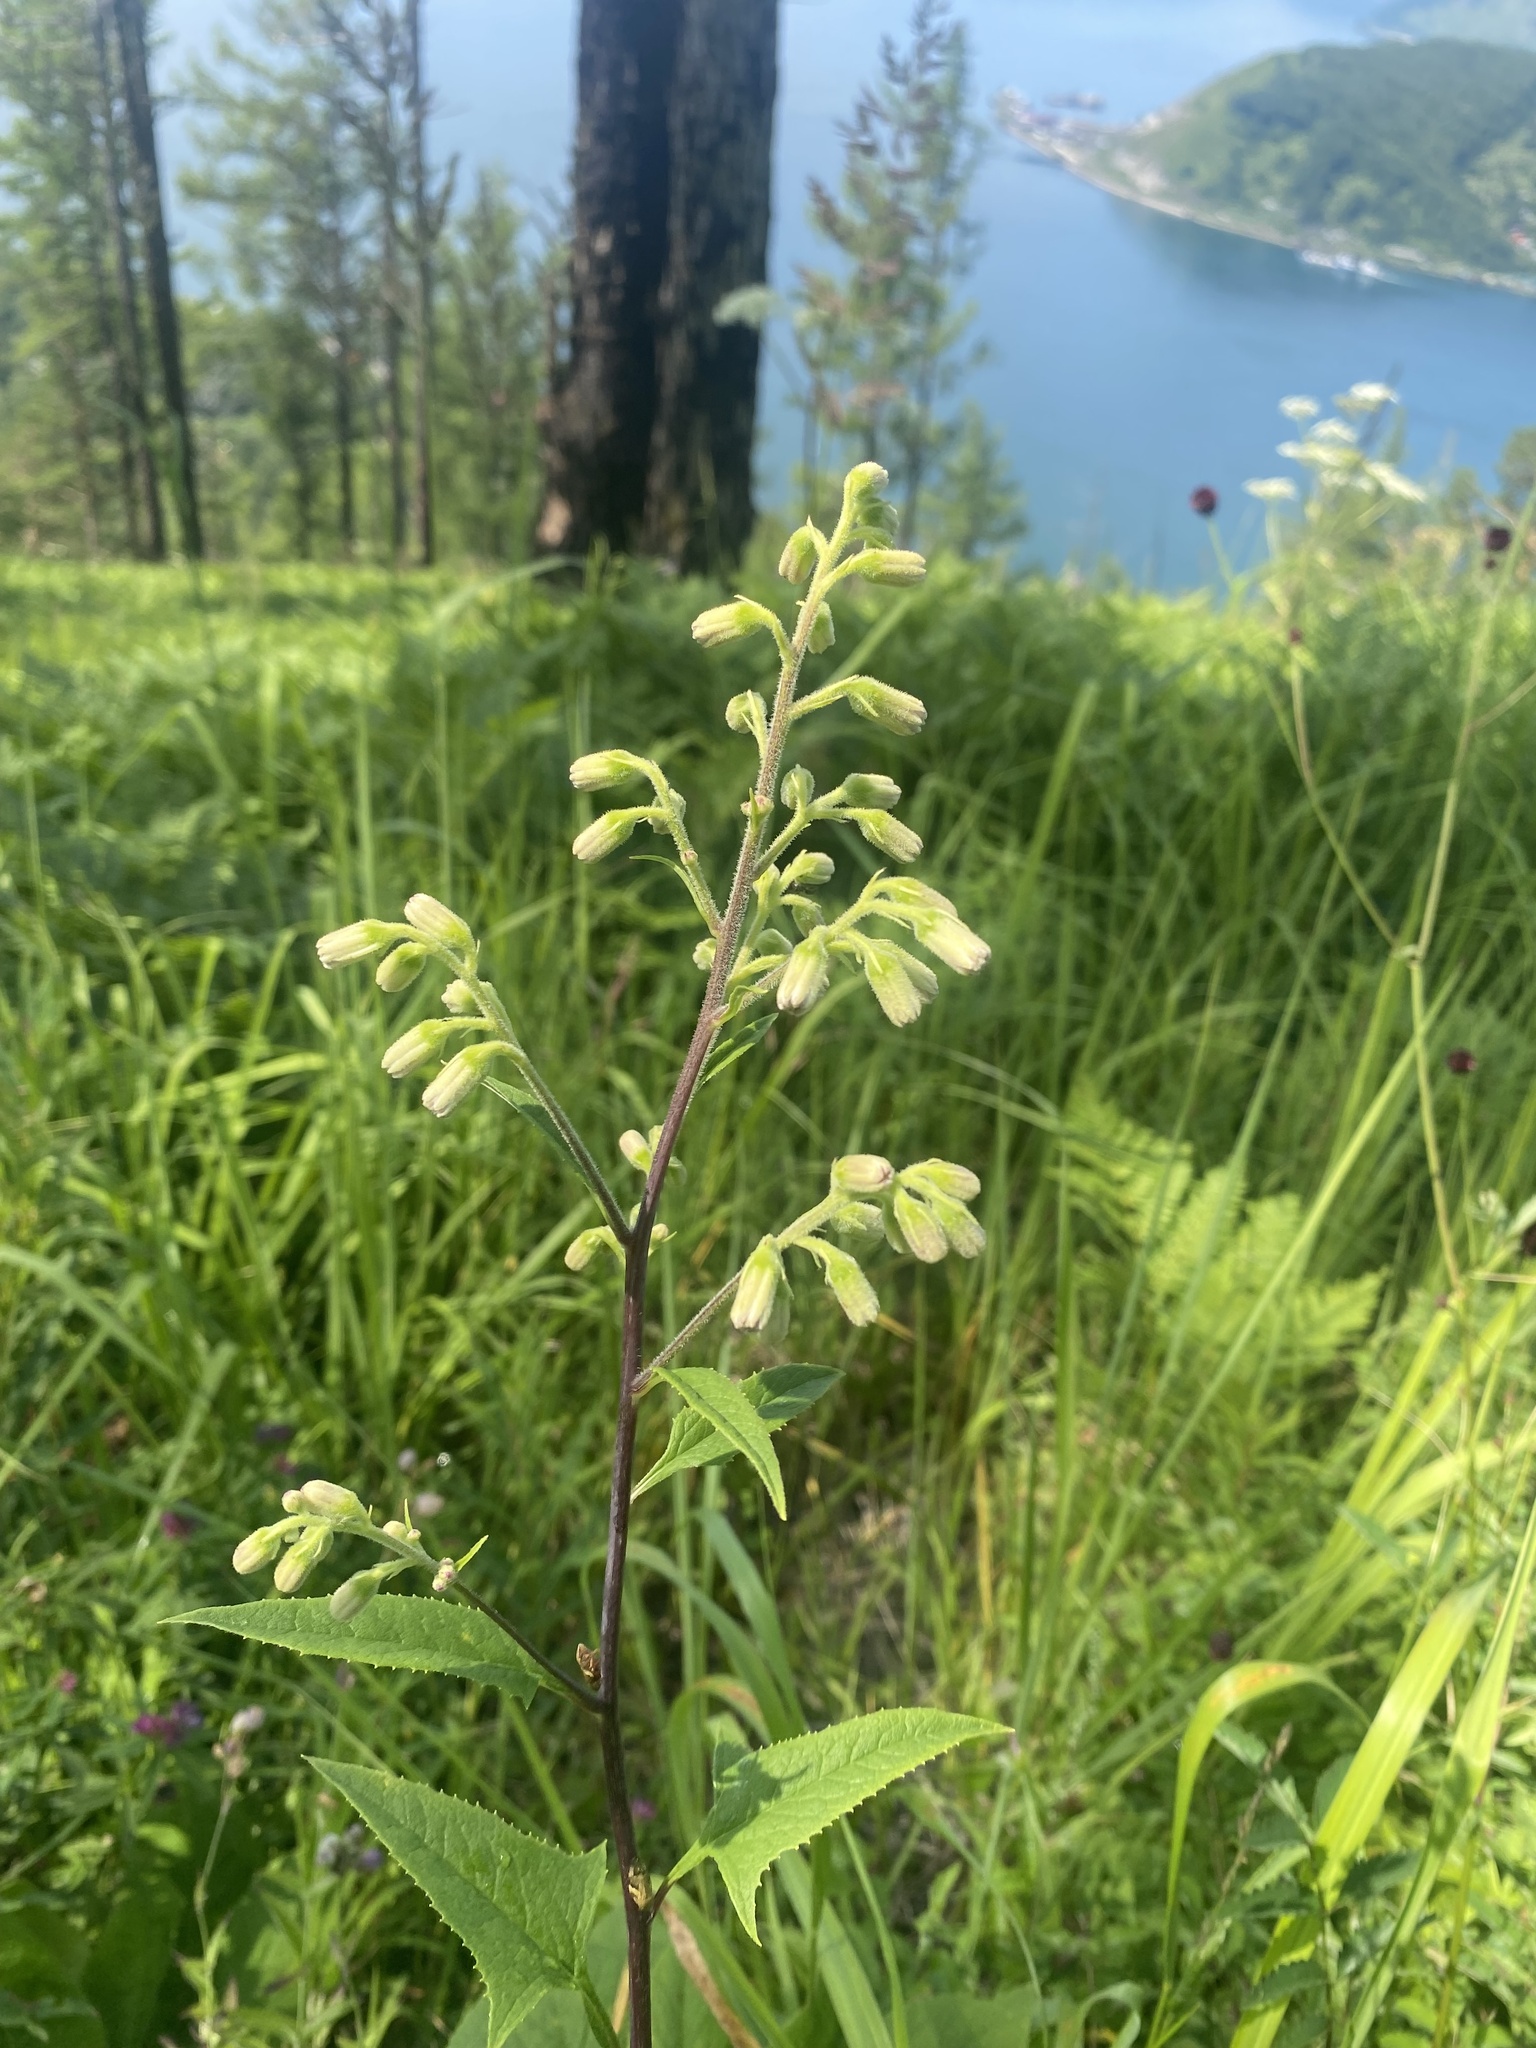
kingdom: Plantae
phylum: Tracheophyta
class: Magnoliopsida
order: Asterales
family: Asteraceae
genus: Parasenecio
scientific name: Parasenecio hastatus
